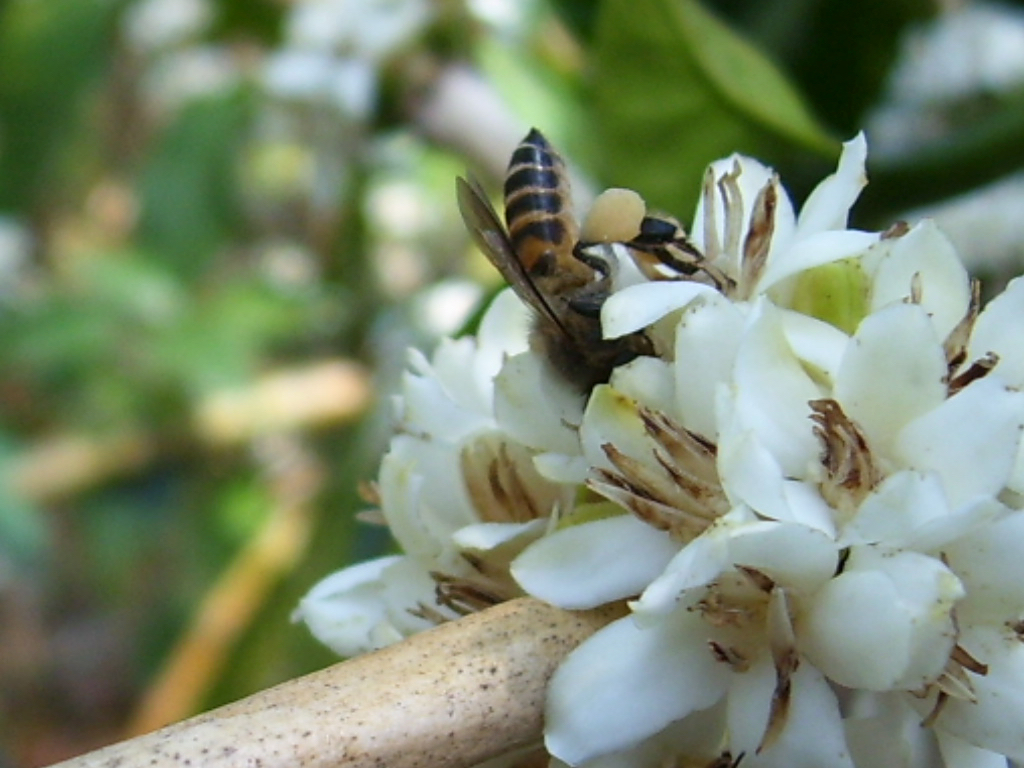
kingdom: Animalia
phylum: Arthropoda
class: Insecta
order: Hymenoptera
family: Apidae
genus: Apis
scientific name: Apis dorsata
